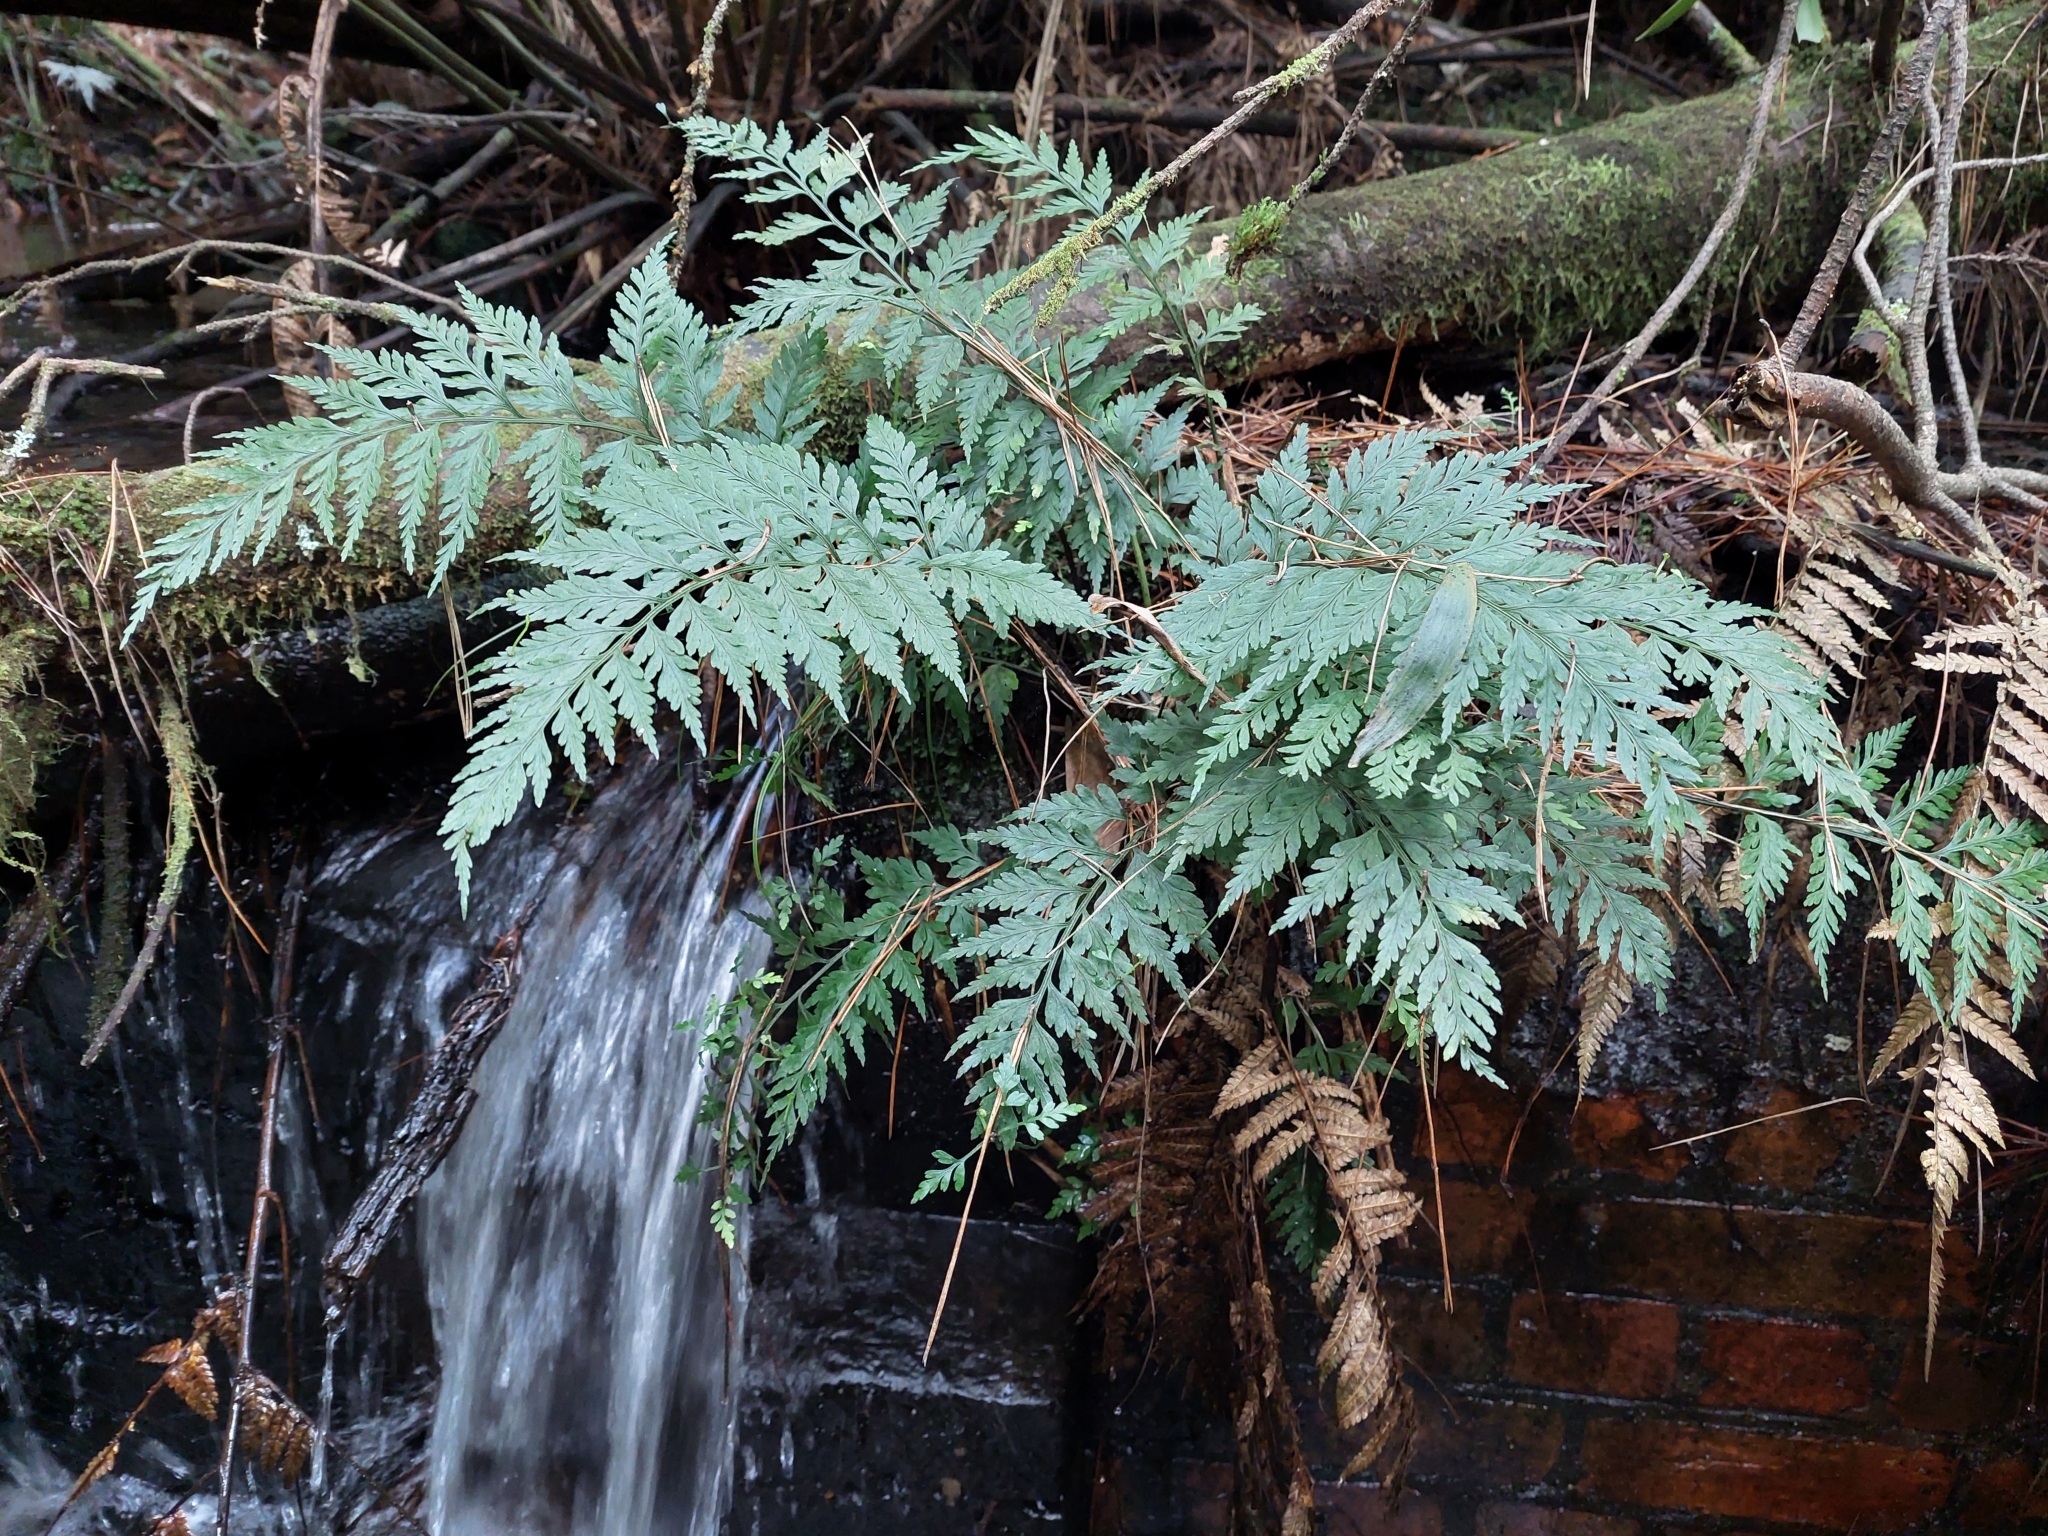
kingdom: Plantae
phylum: Tracheophyta
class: Polypodiopsida
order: Polypodiales
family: Aspleniaceae
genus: Asplenium
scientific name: Asplenium
